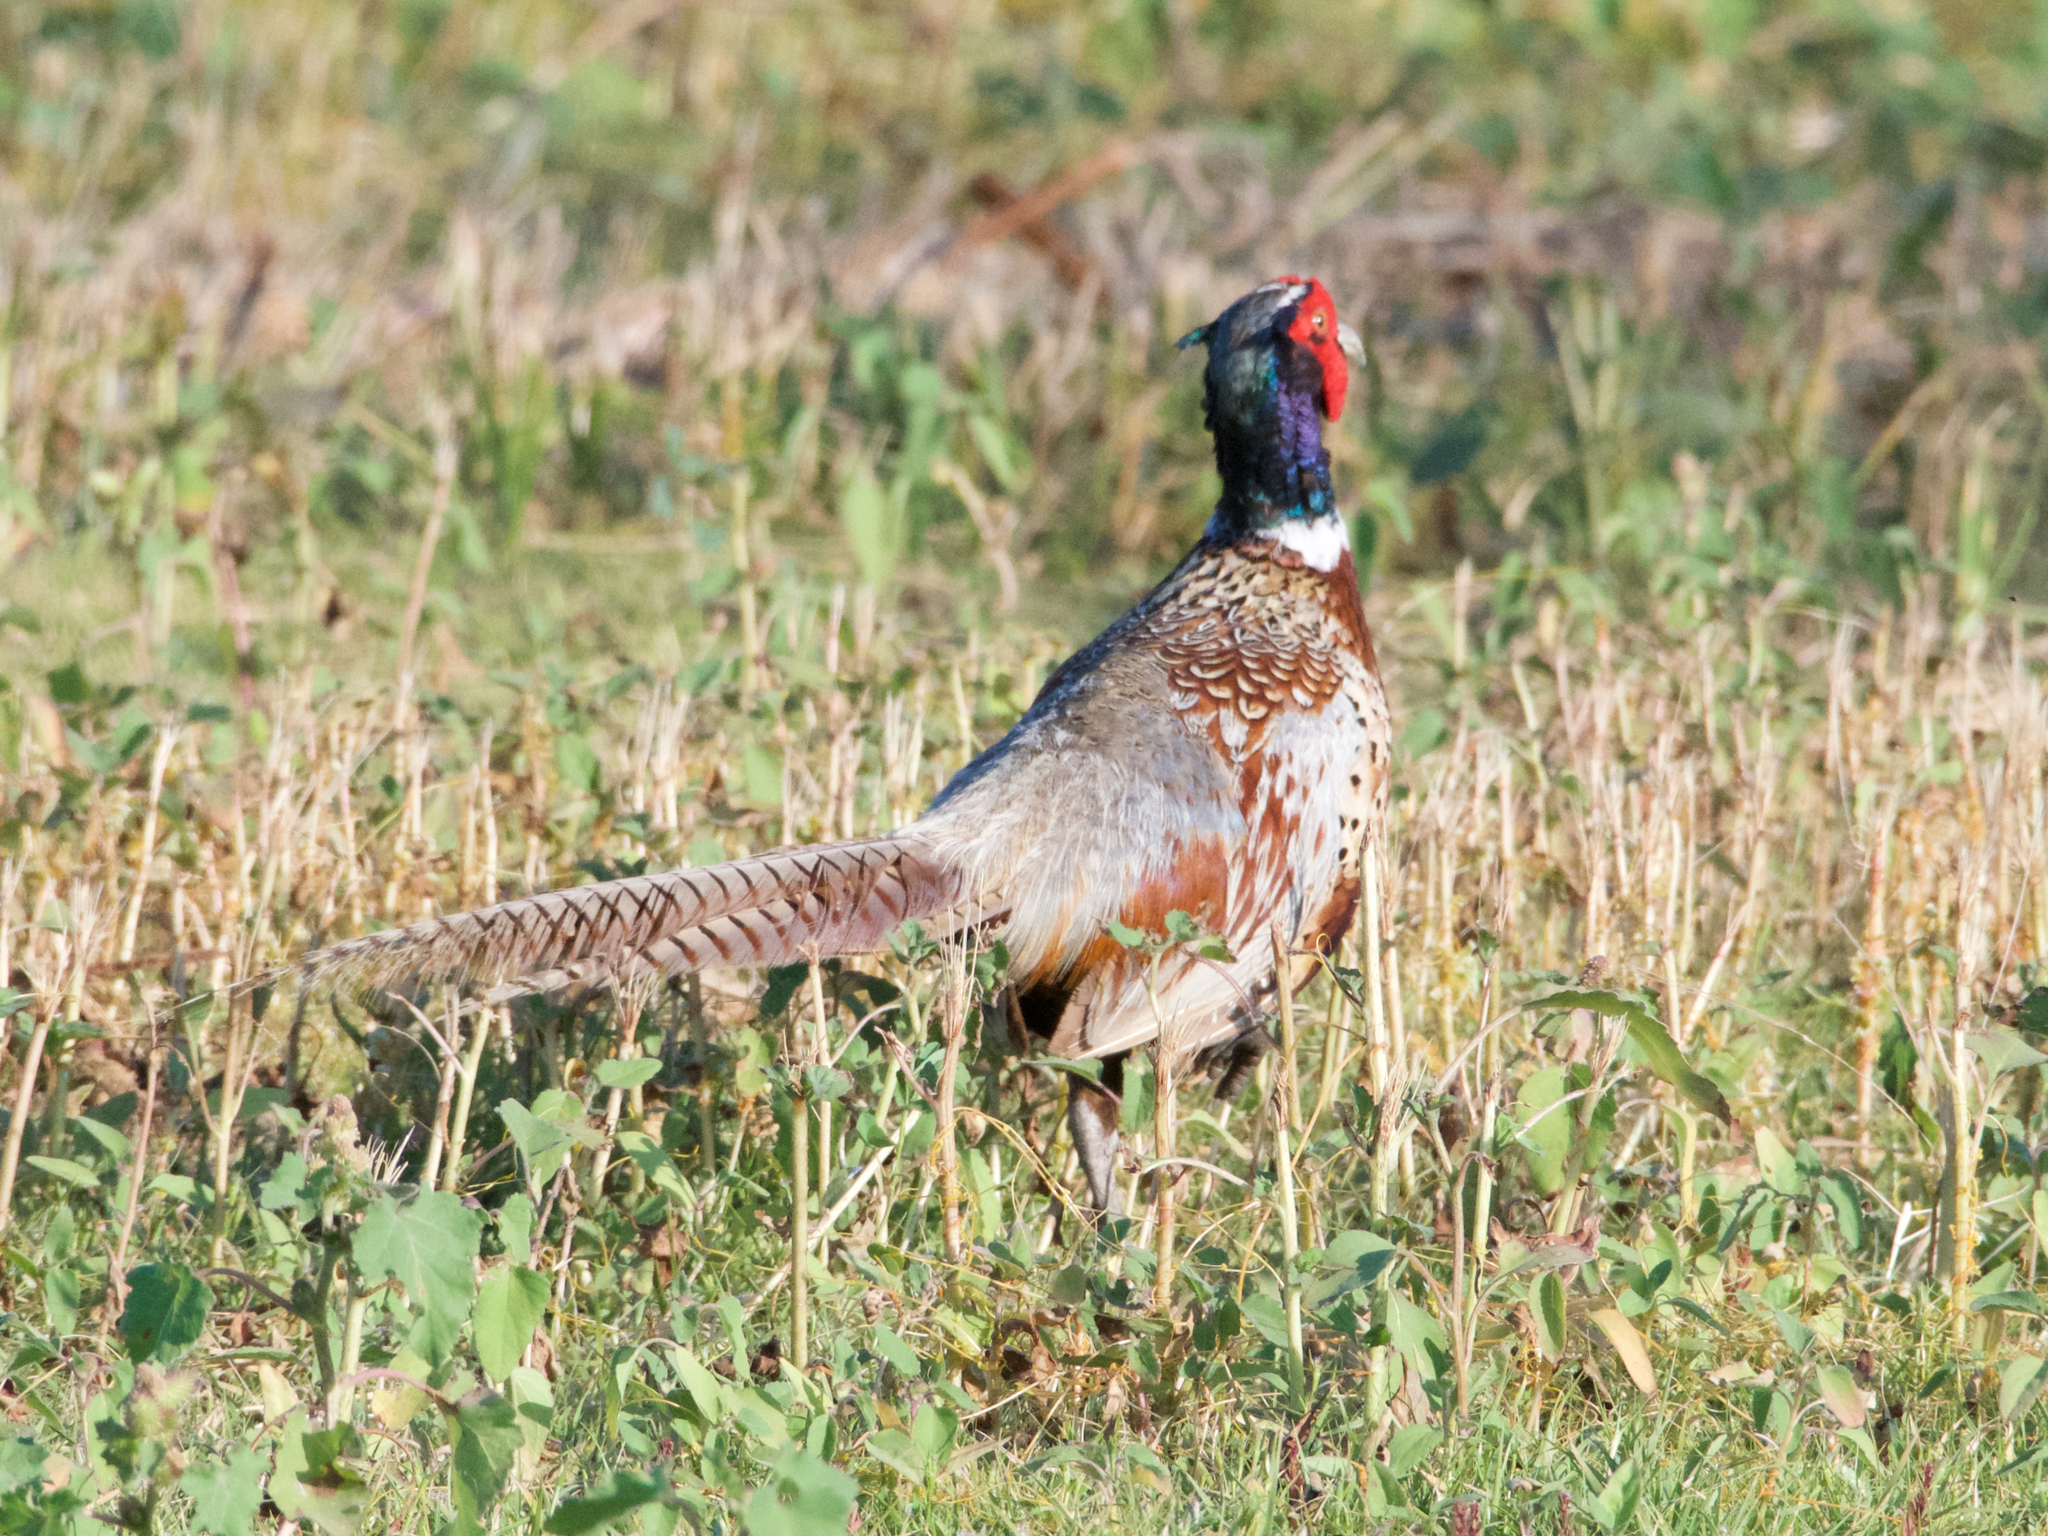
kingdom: Animalia
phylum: Chordata
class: Aves
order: Galliformes
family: Phasianidae
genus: Phasianus
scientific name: Phasianus colchicus
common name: Common pheasant
